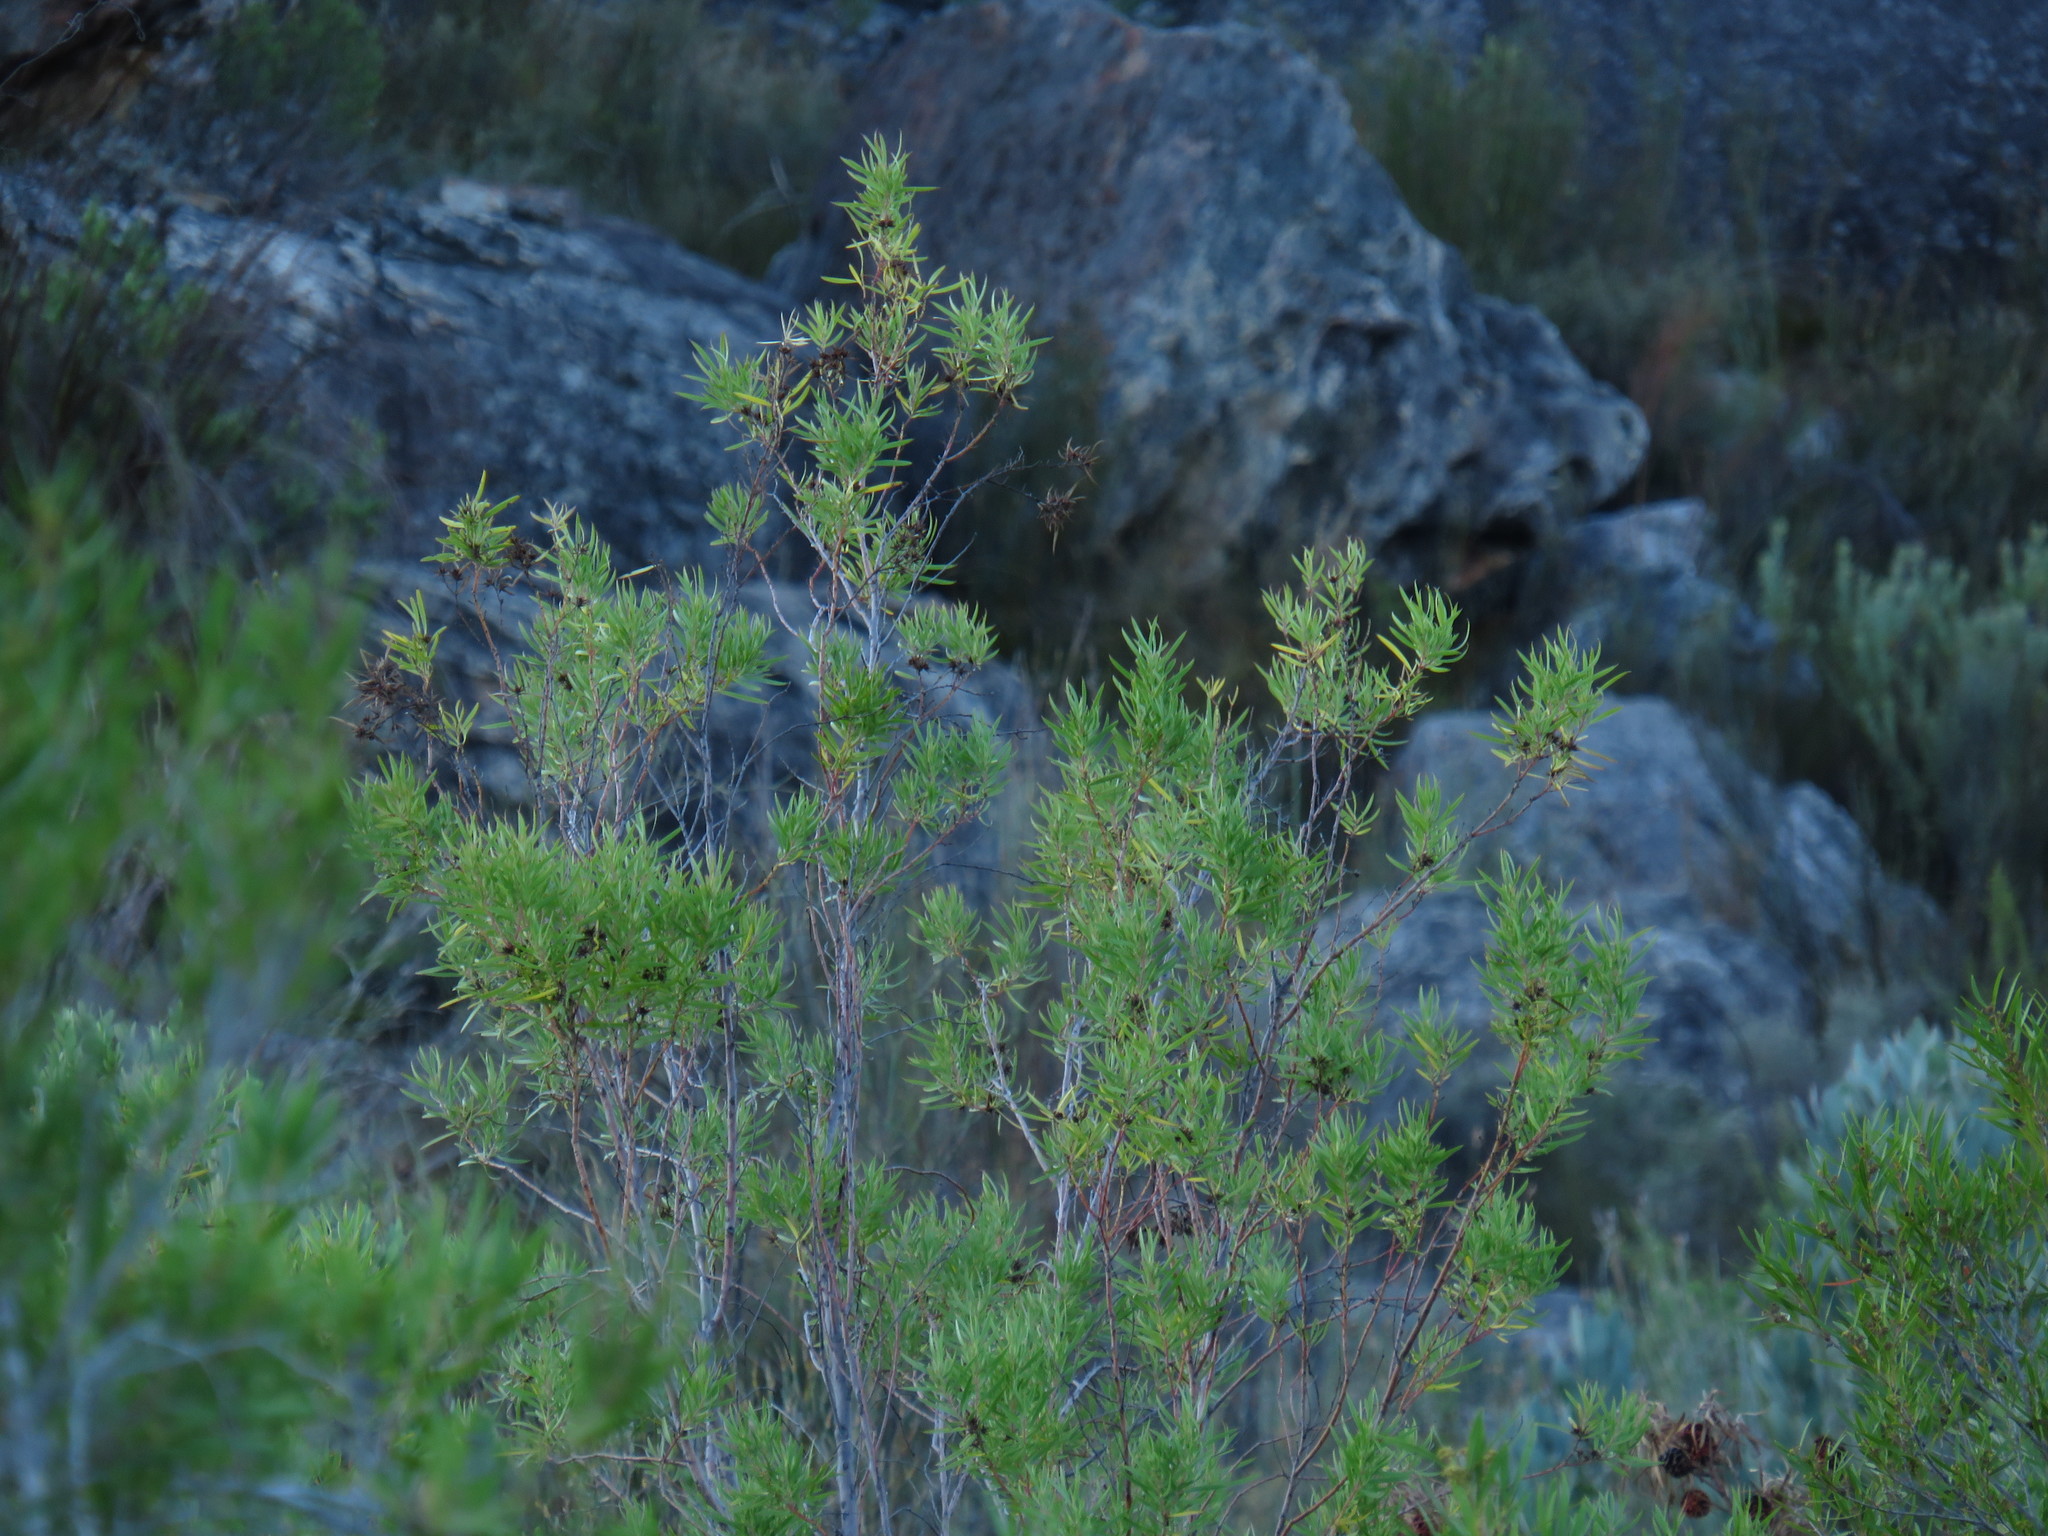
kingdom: Plantae
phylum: Tracheophyta
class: Magnoliopsida
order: Proteales
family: Proteaceae
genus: Leucadendron
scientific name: Leucadendron salicifolium
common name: Common stream conebush
